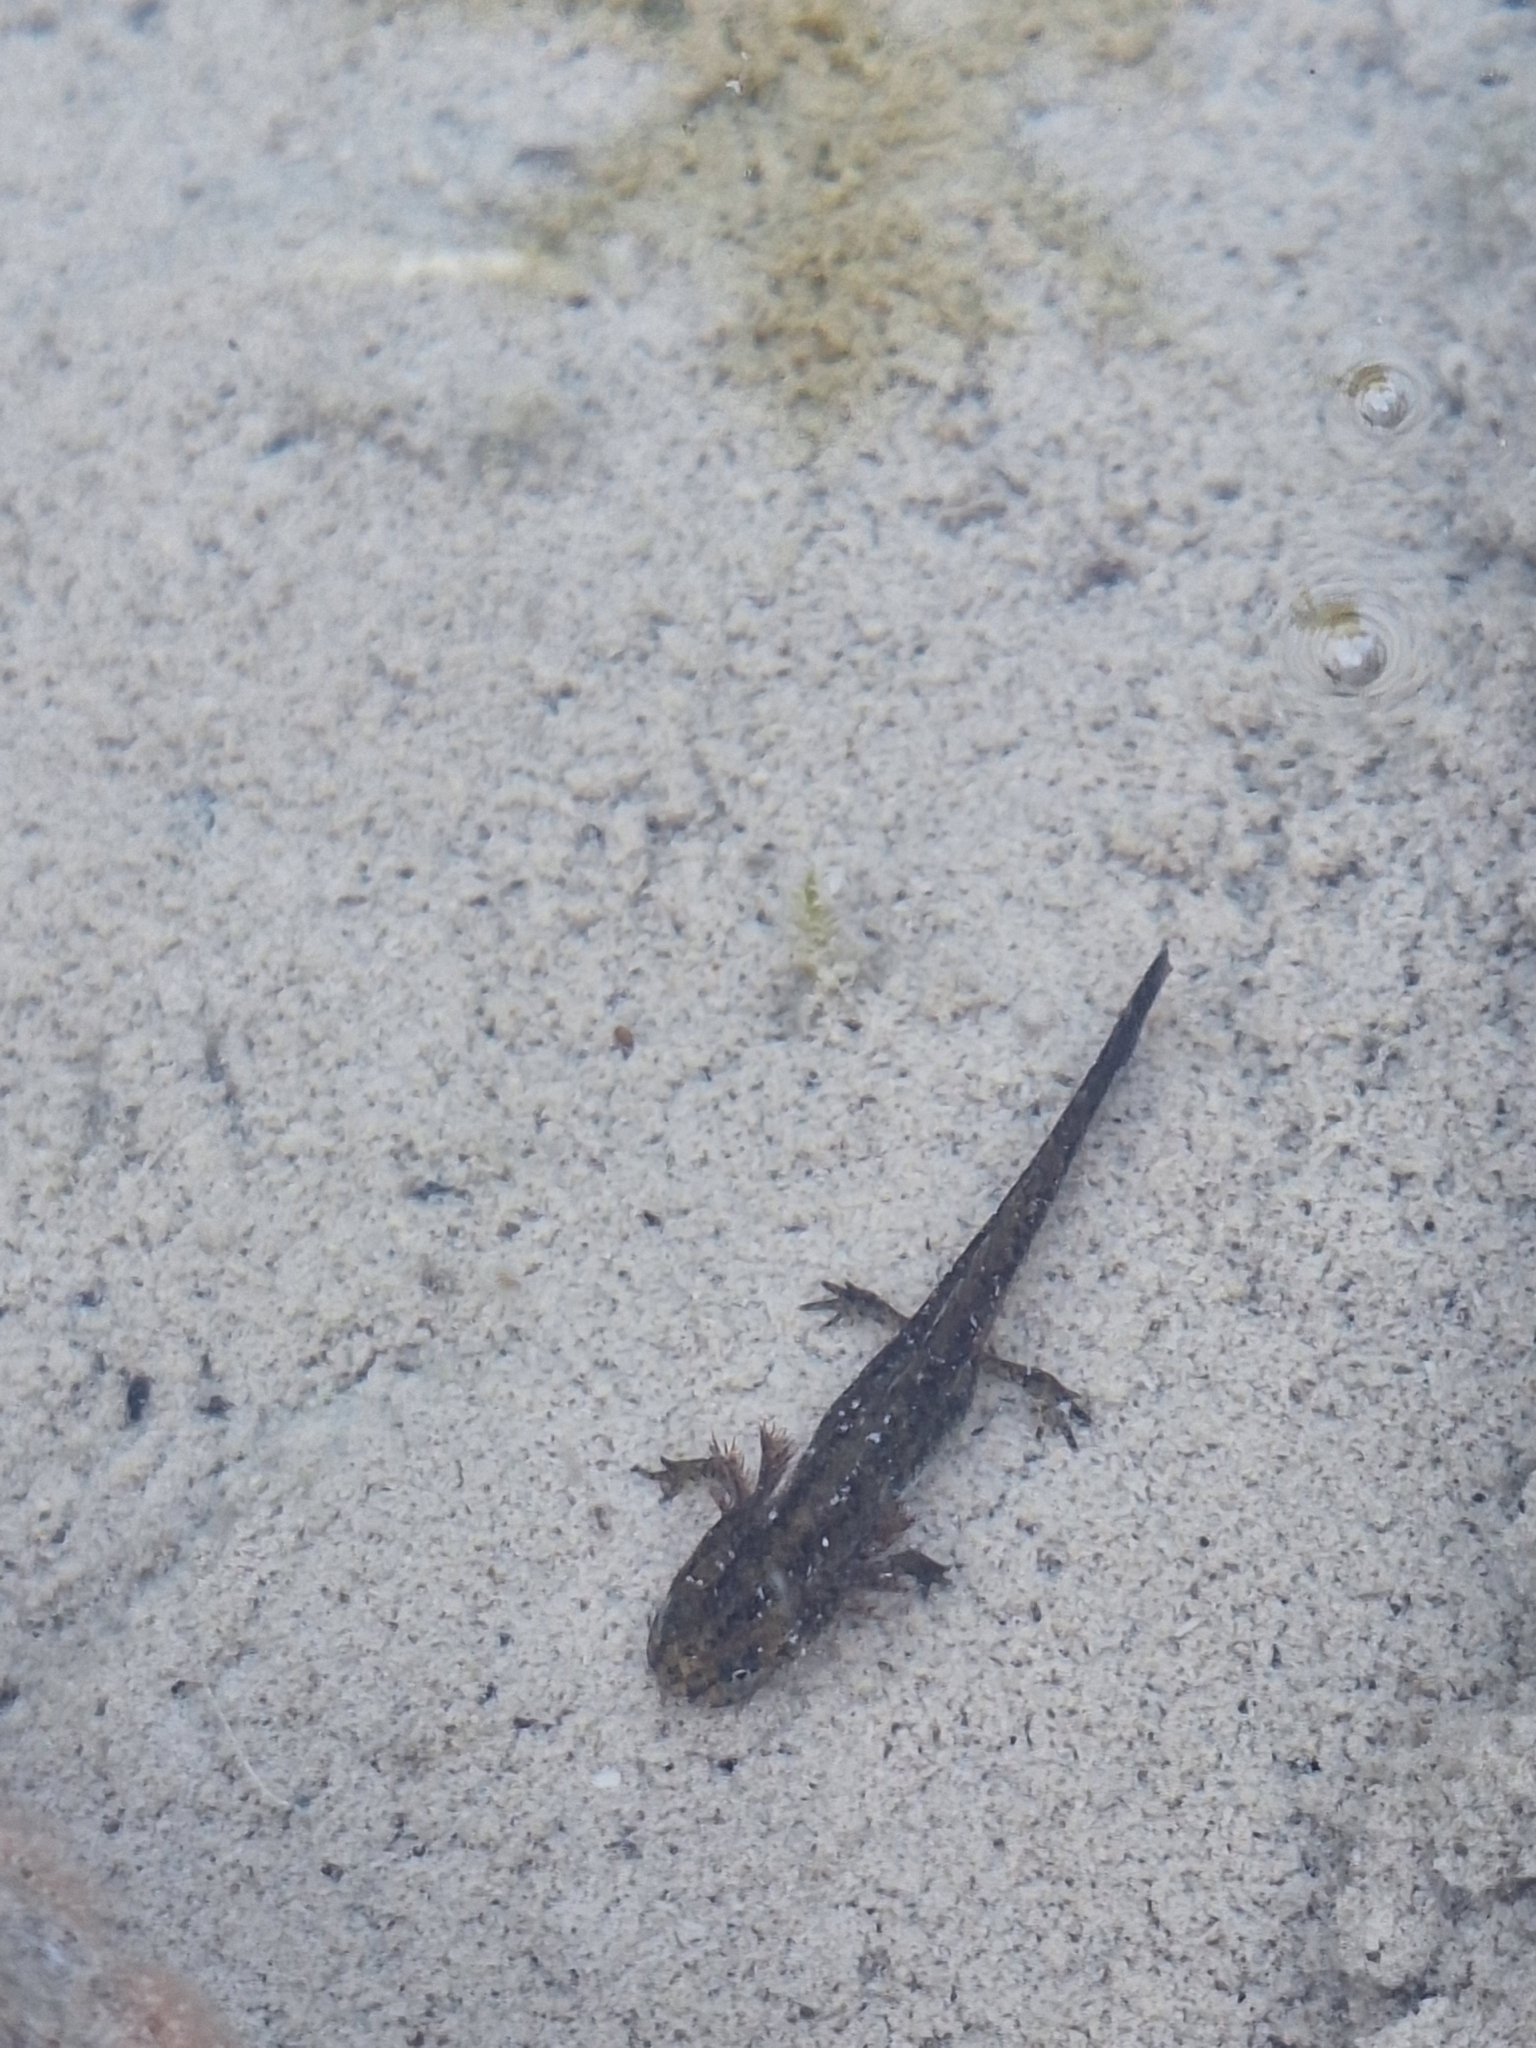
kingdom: Animalia
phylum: Chordata
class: Amphibia
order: Caudata
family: Salamandridae
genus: Ichthyosaura
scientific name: Ichthyosaura alpestris
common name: Alpine newt
